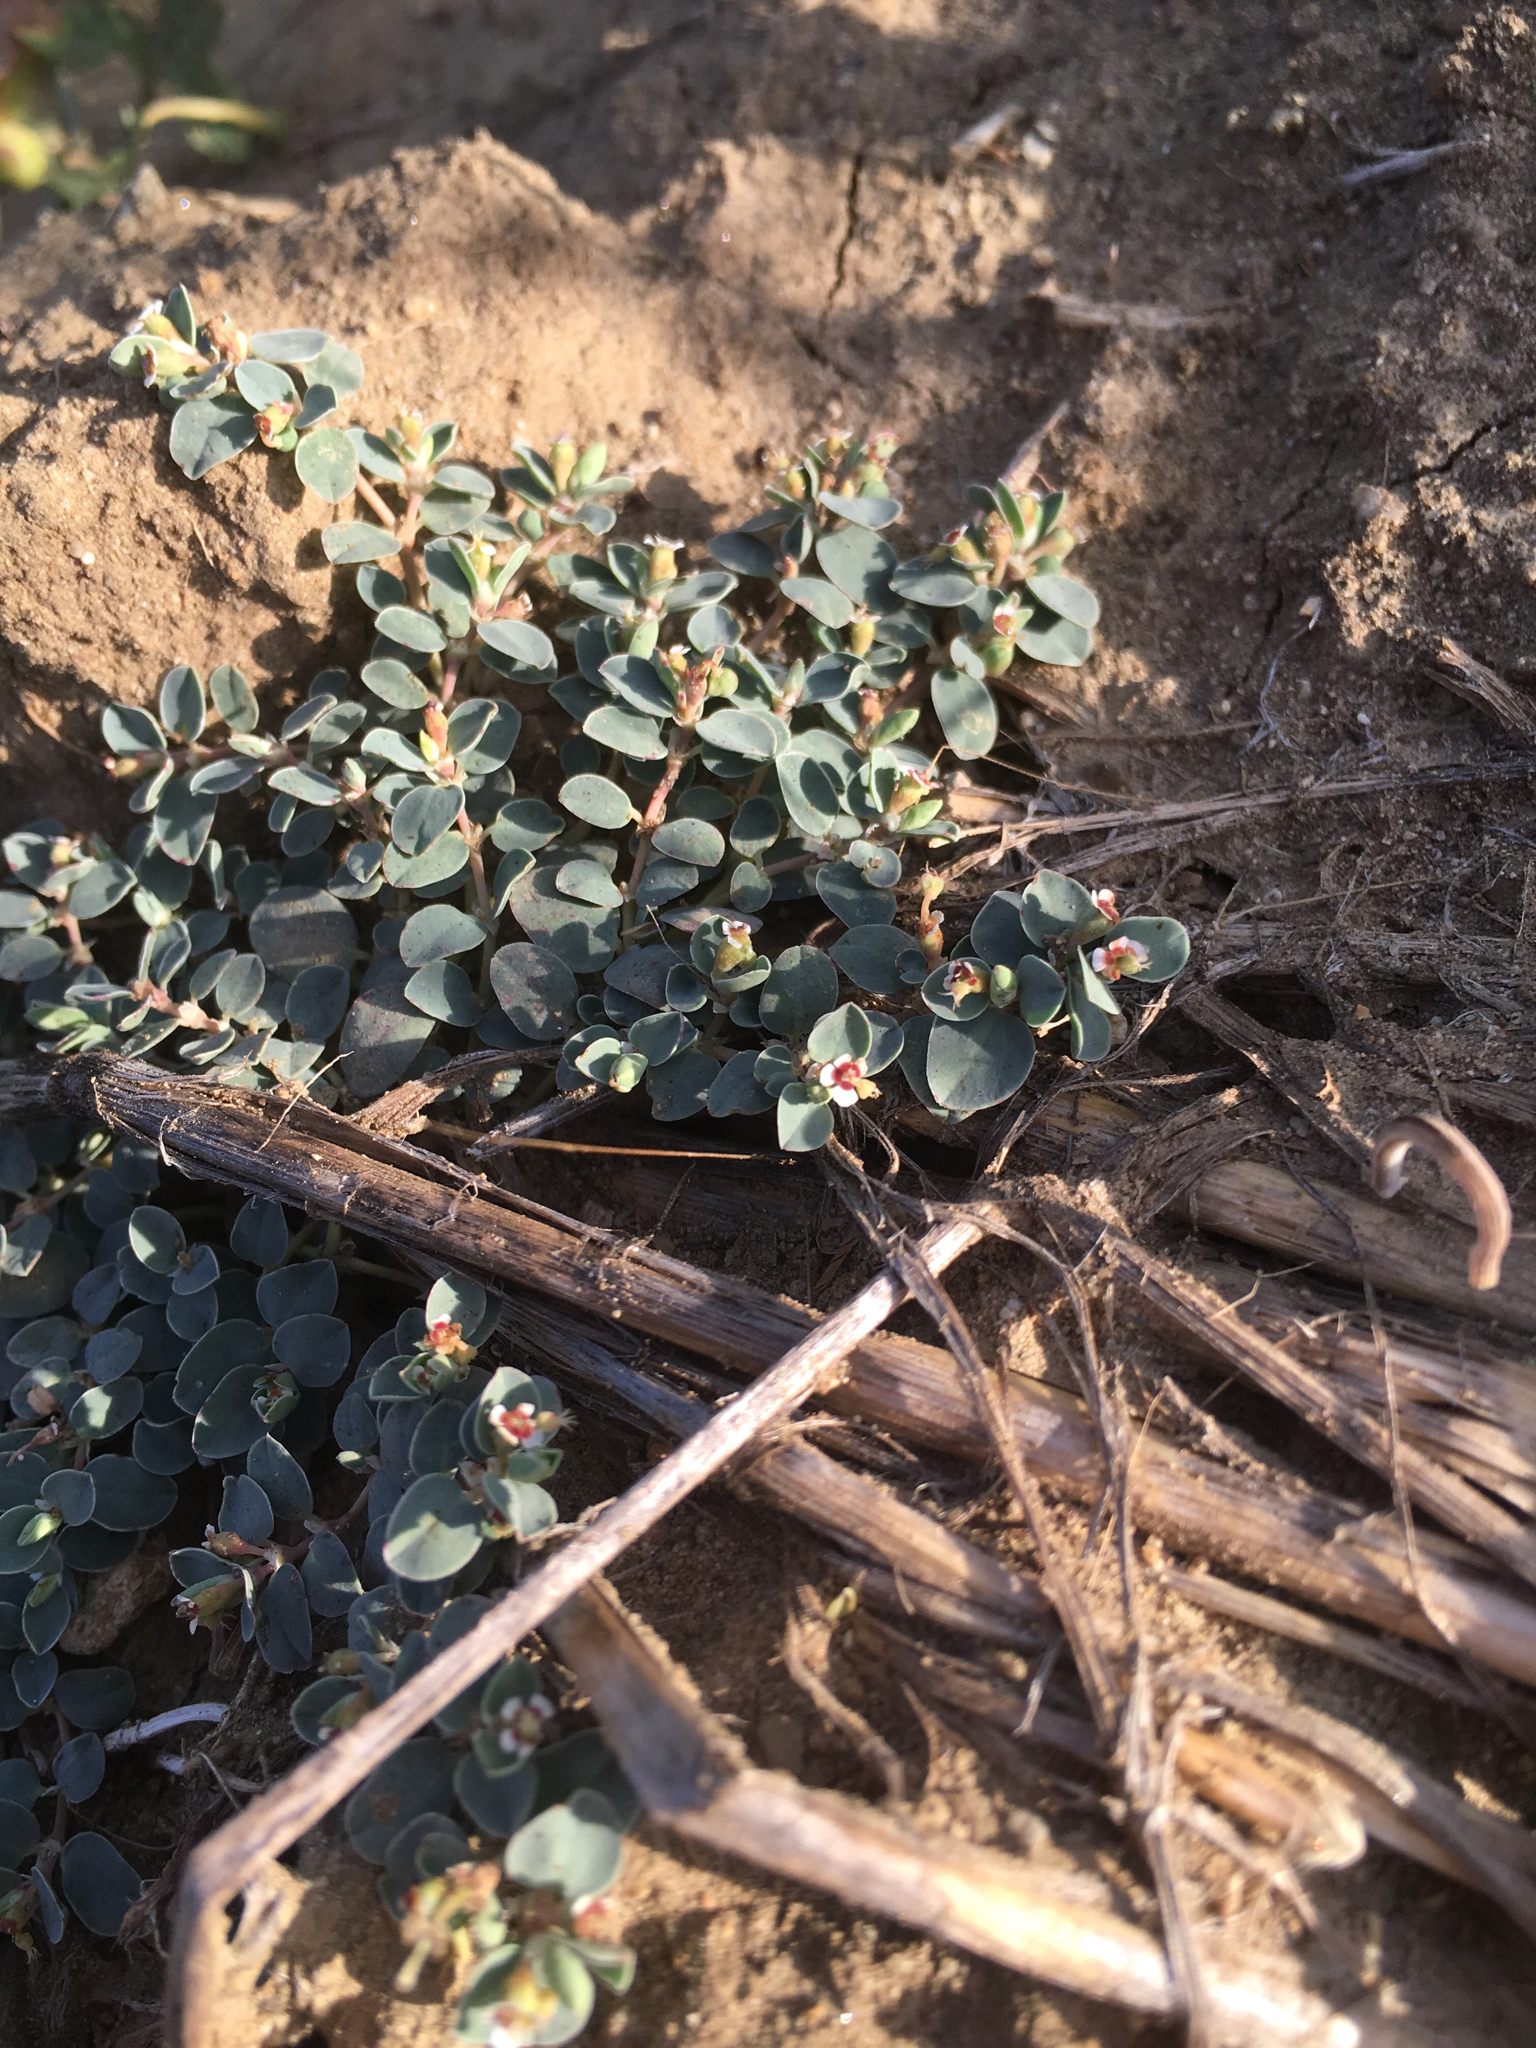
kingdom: Plantae
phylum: Tracheophyta
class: Magnoliopsida
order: Malpighiales
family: Euphorbiaceae
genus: Euphorbia
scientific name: Euphorbia albomarginata
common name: Whitemargin sandmat
